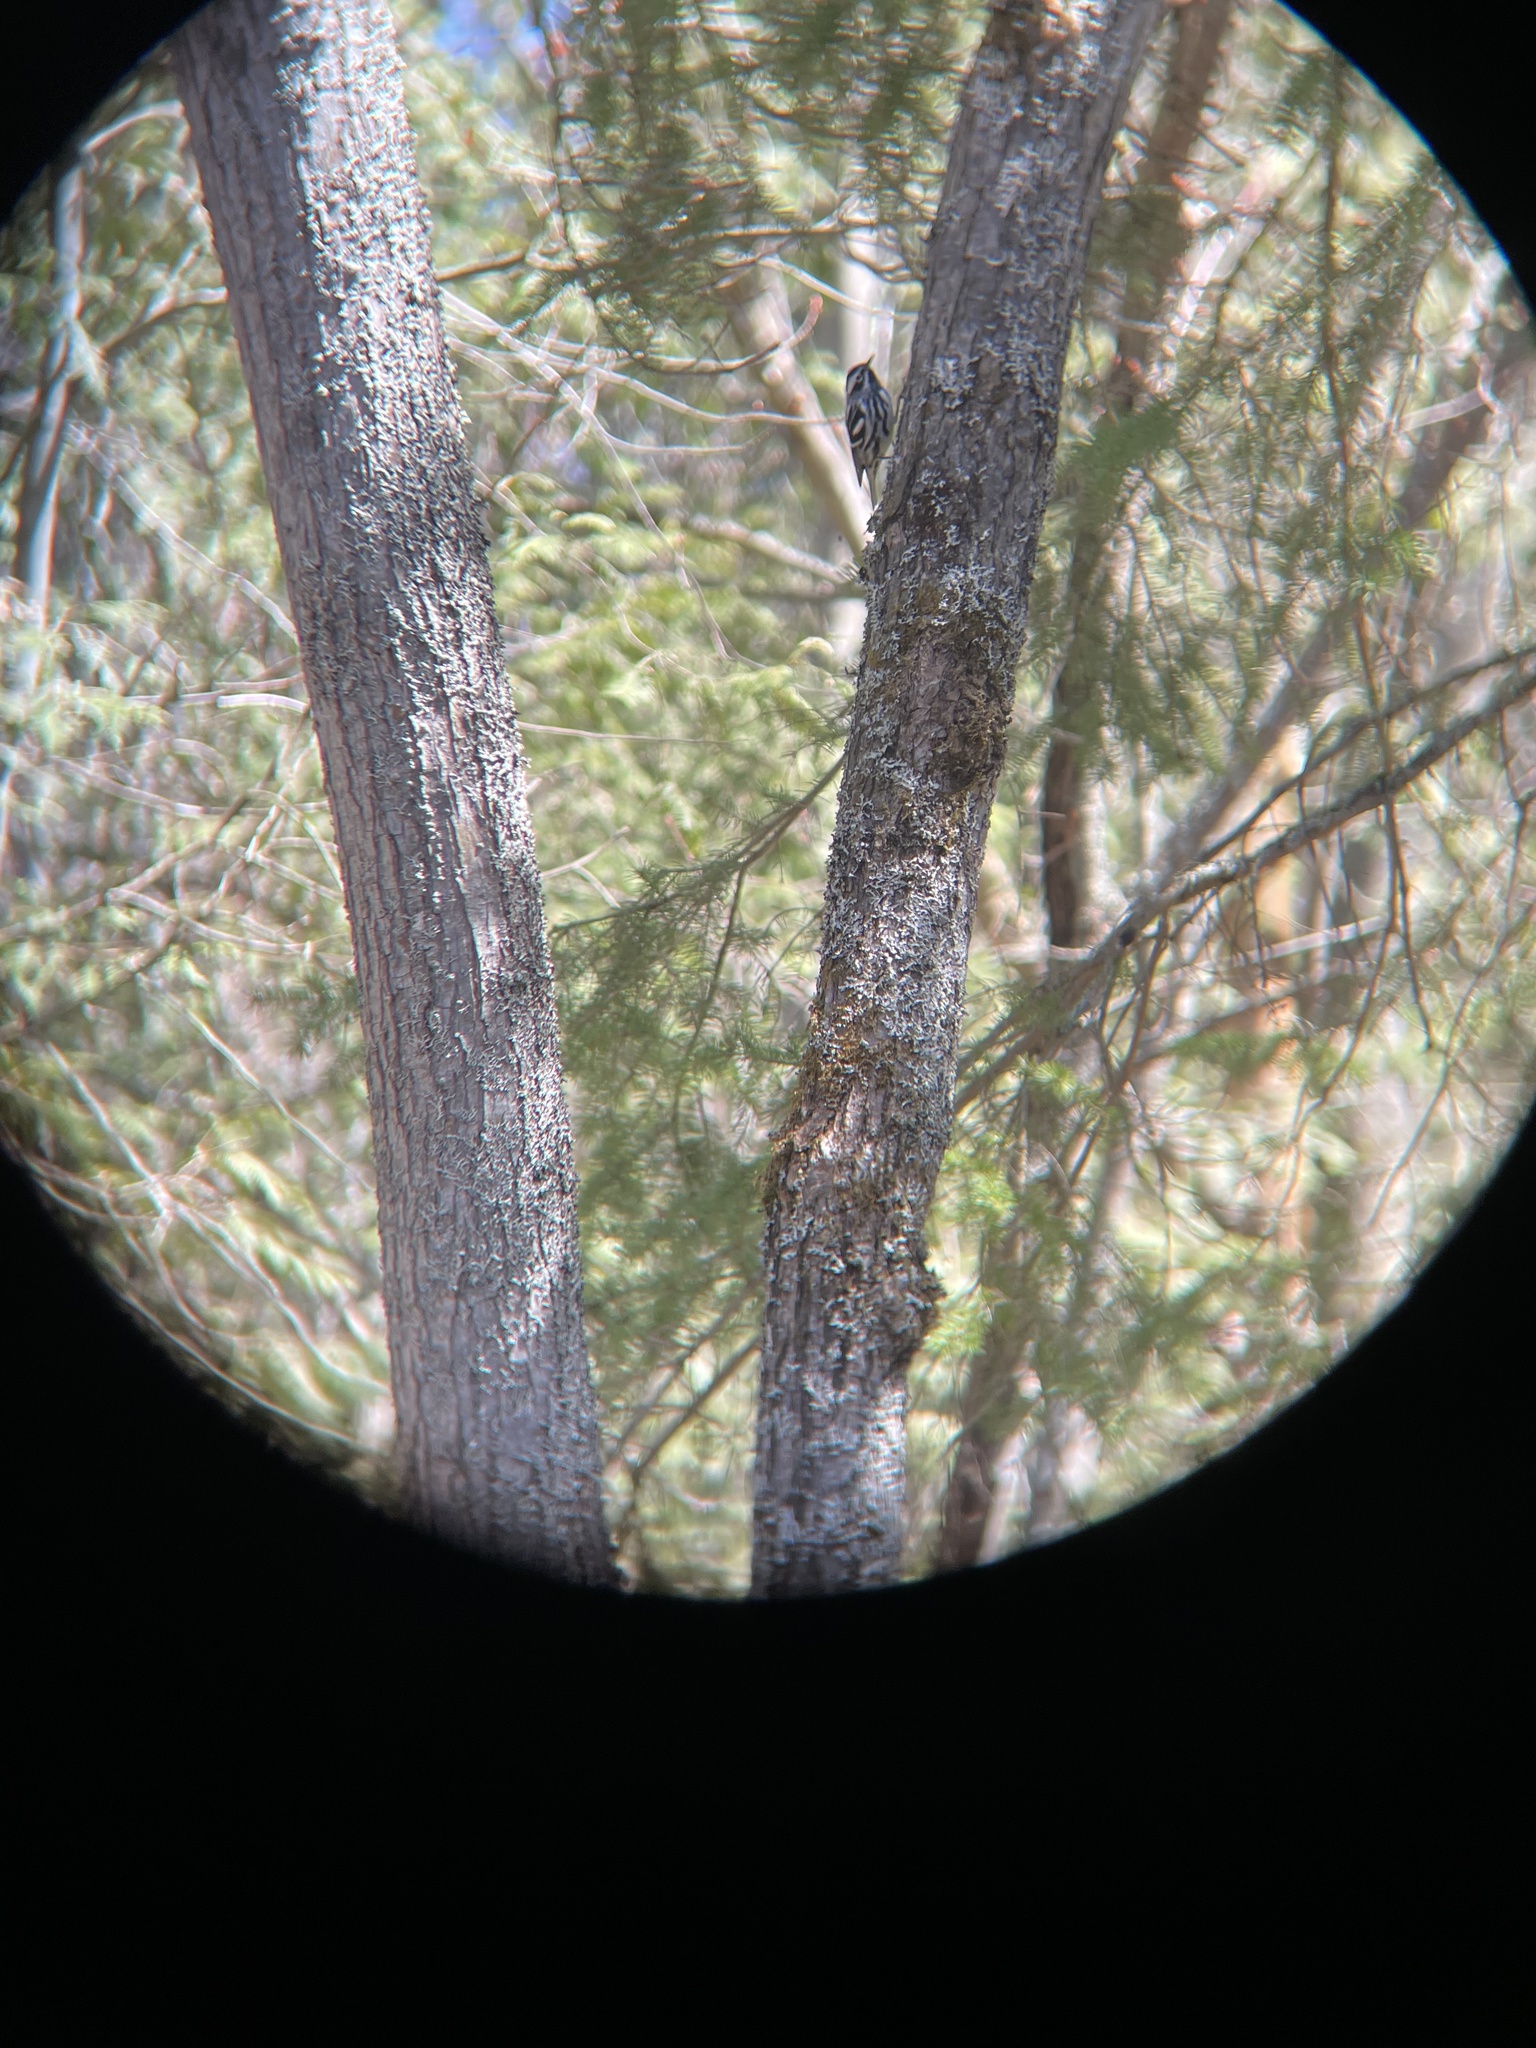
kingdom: Animalia
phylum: Chordata
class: Aves
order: Passeriformes
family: Parulidae
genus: Mniotilta
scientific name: Mniotilta varia
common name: Black-and-white warbler
